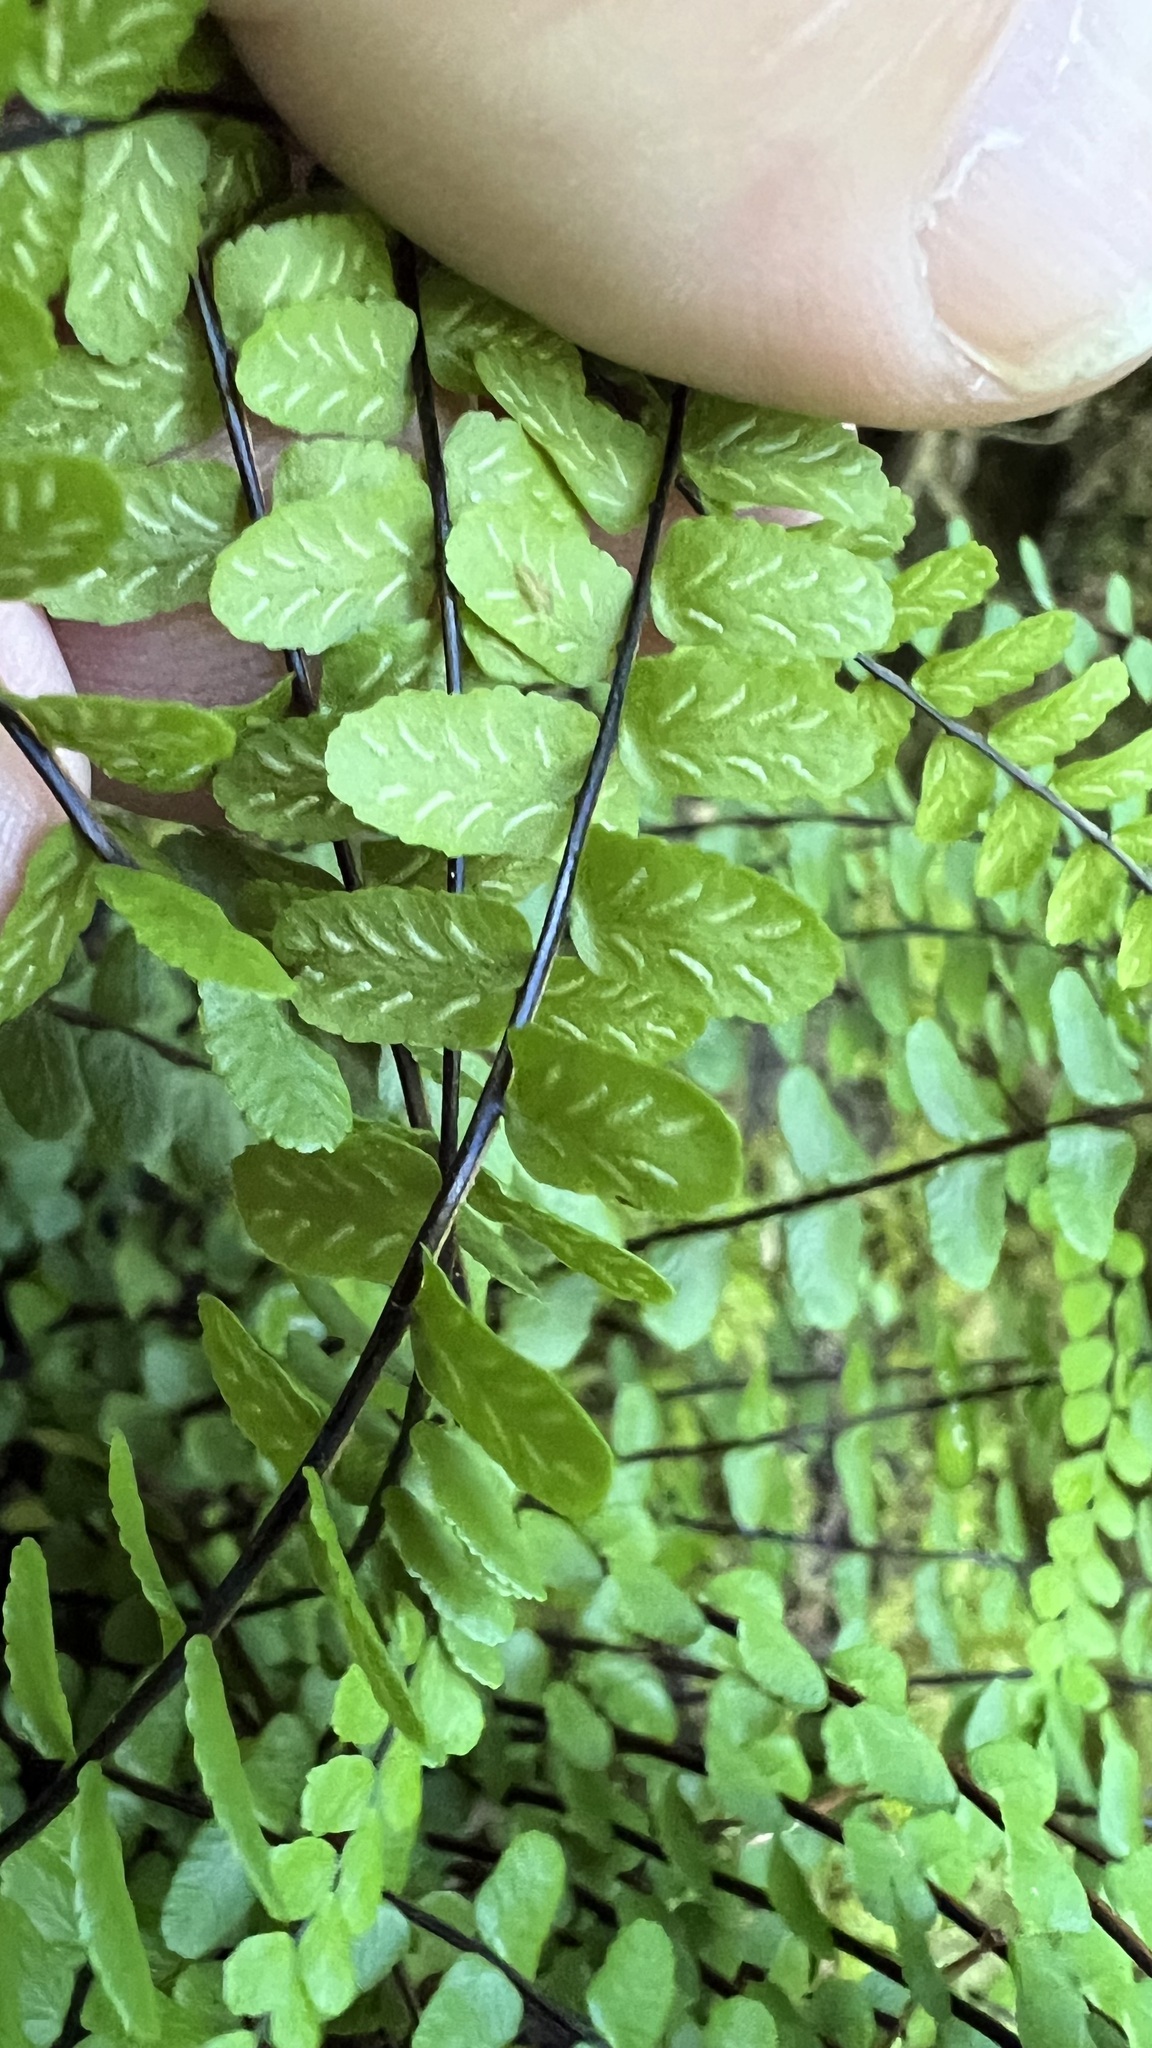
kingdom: Plantae
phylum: Tracheophyta
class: Polypodiopsida
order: Polypodiales
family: Aspleniaceae
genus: Asplenium
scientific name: Asplenium trichomanes
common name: Maidenhair spleenwort
